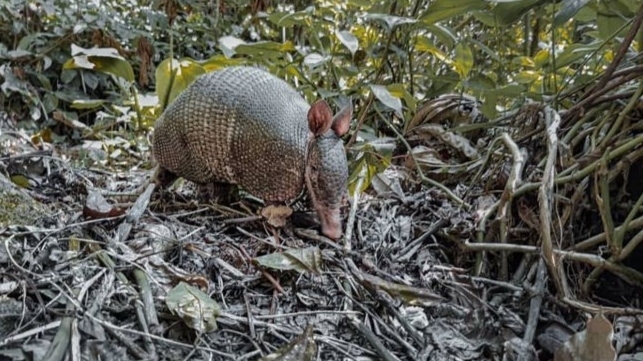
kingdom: Animalia
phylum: Chordata
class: Mammalia
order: Cingulata
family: Dasypodidae
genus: Dasypus
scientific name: Dasypus novemcinctus
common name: Nine-banded armadillo
